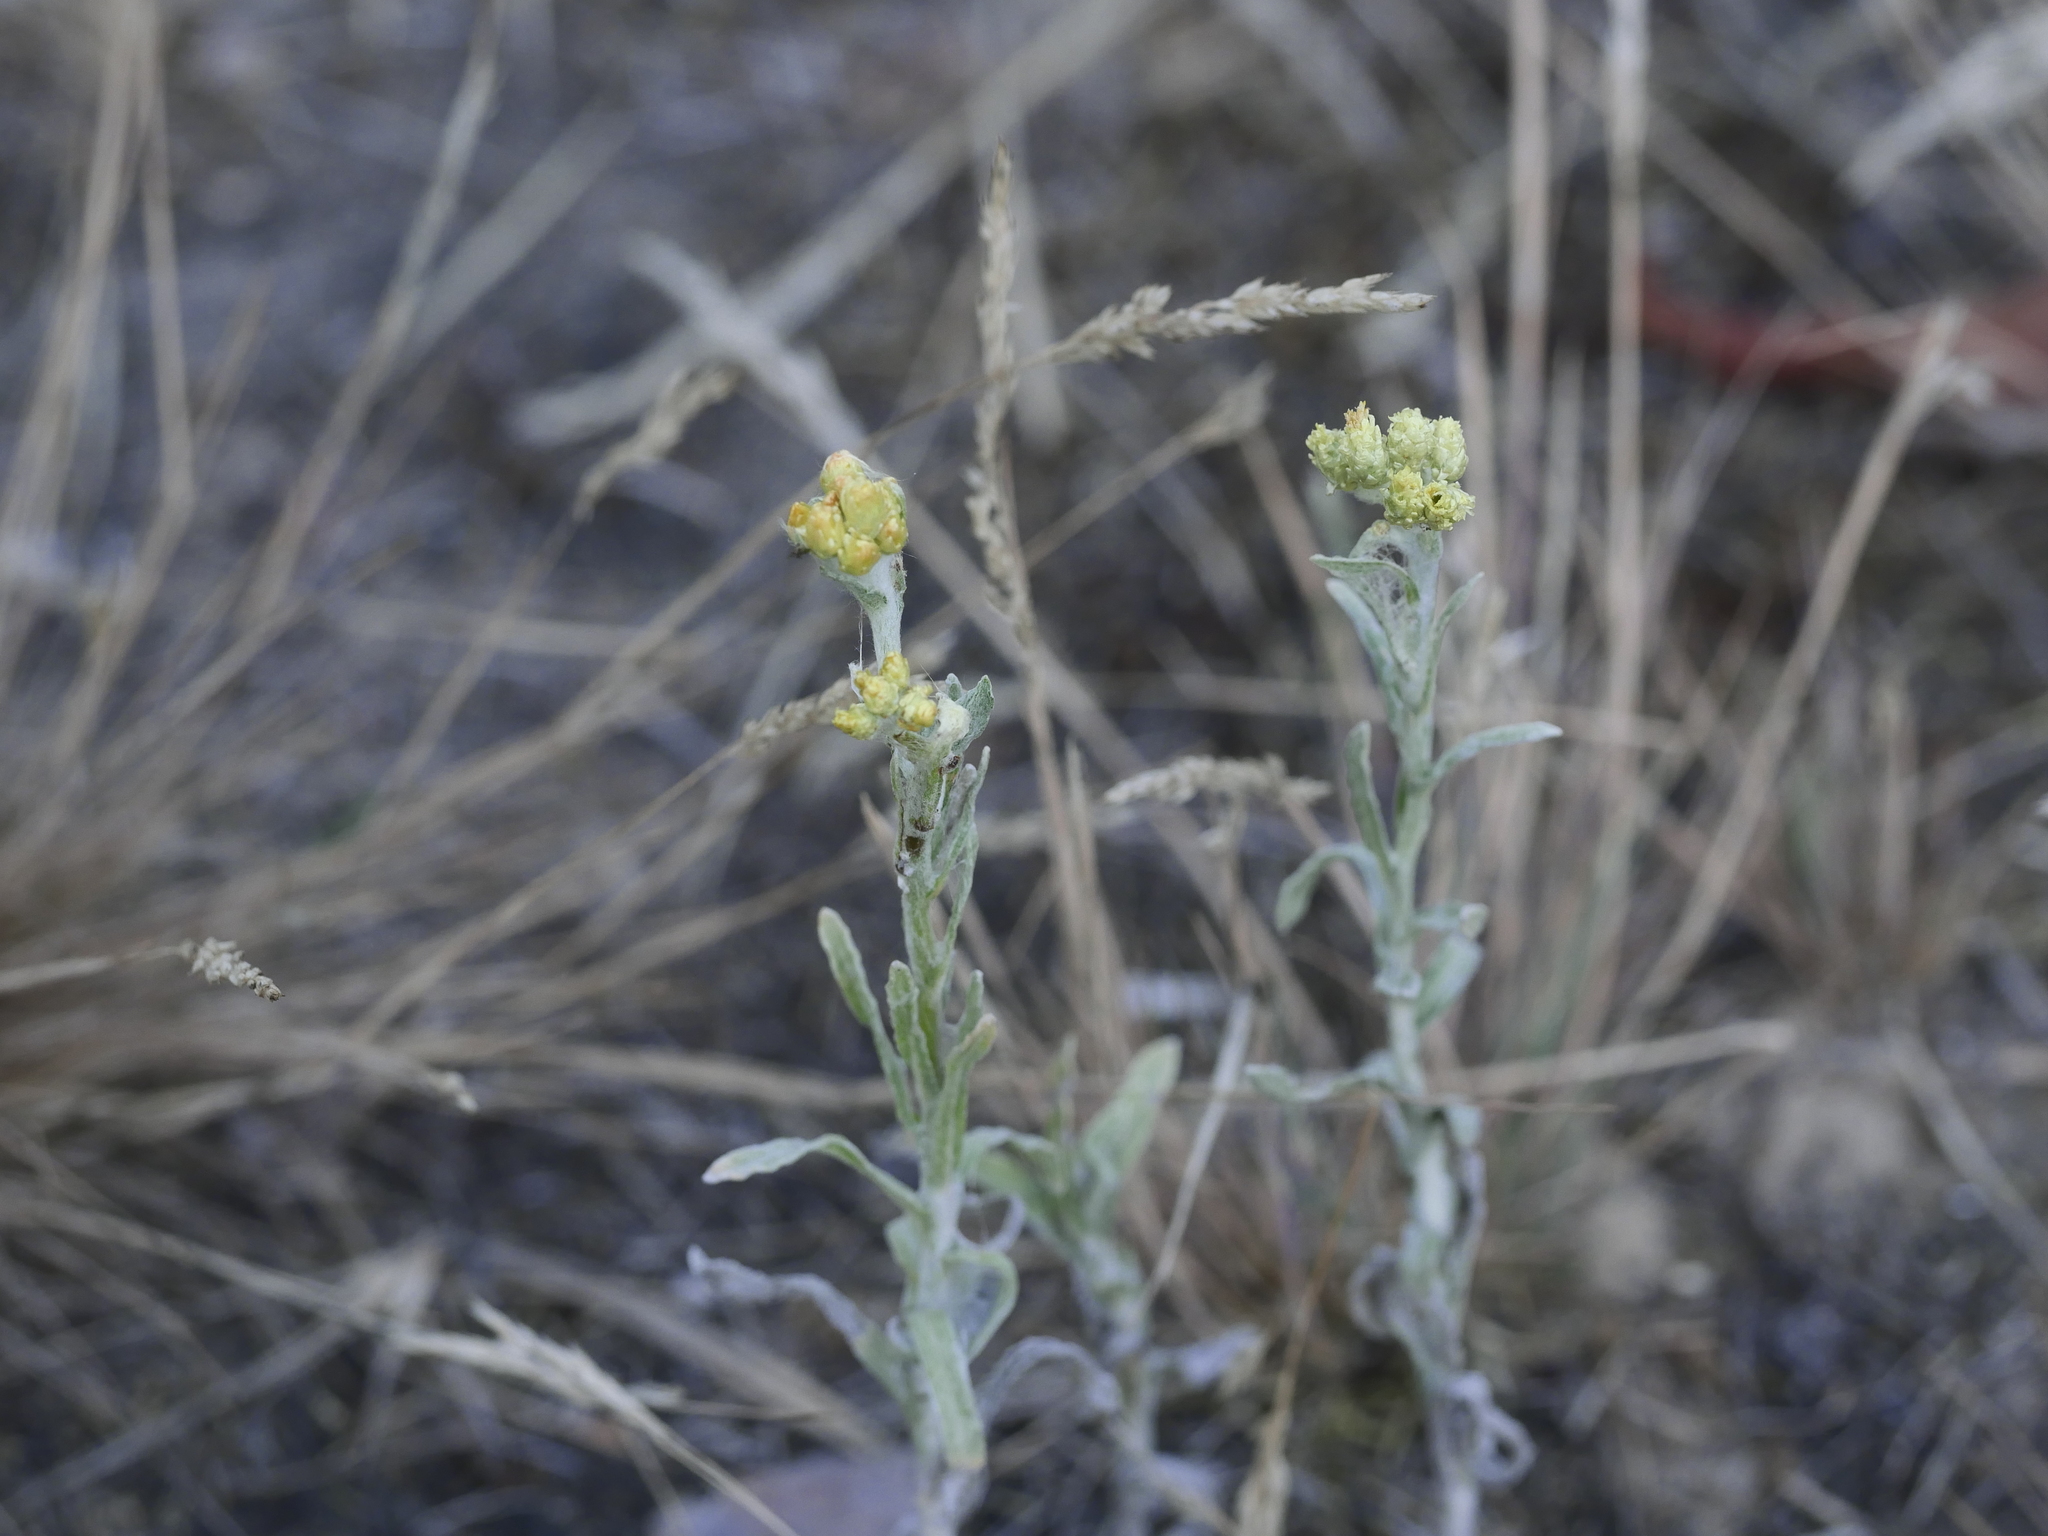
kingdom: Plantae
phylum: Tracheophyta
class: Magnoliopsida
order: Asterales
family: Asteraceae
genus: Helichrysum
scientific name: Helichrysum arenarium
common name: Strawflower
